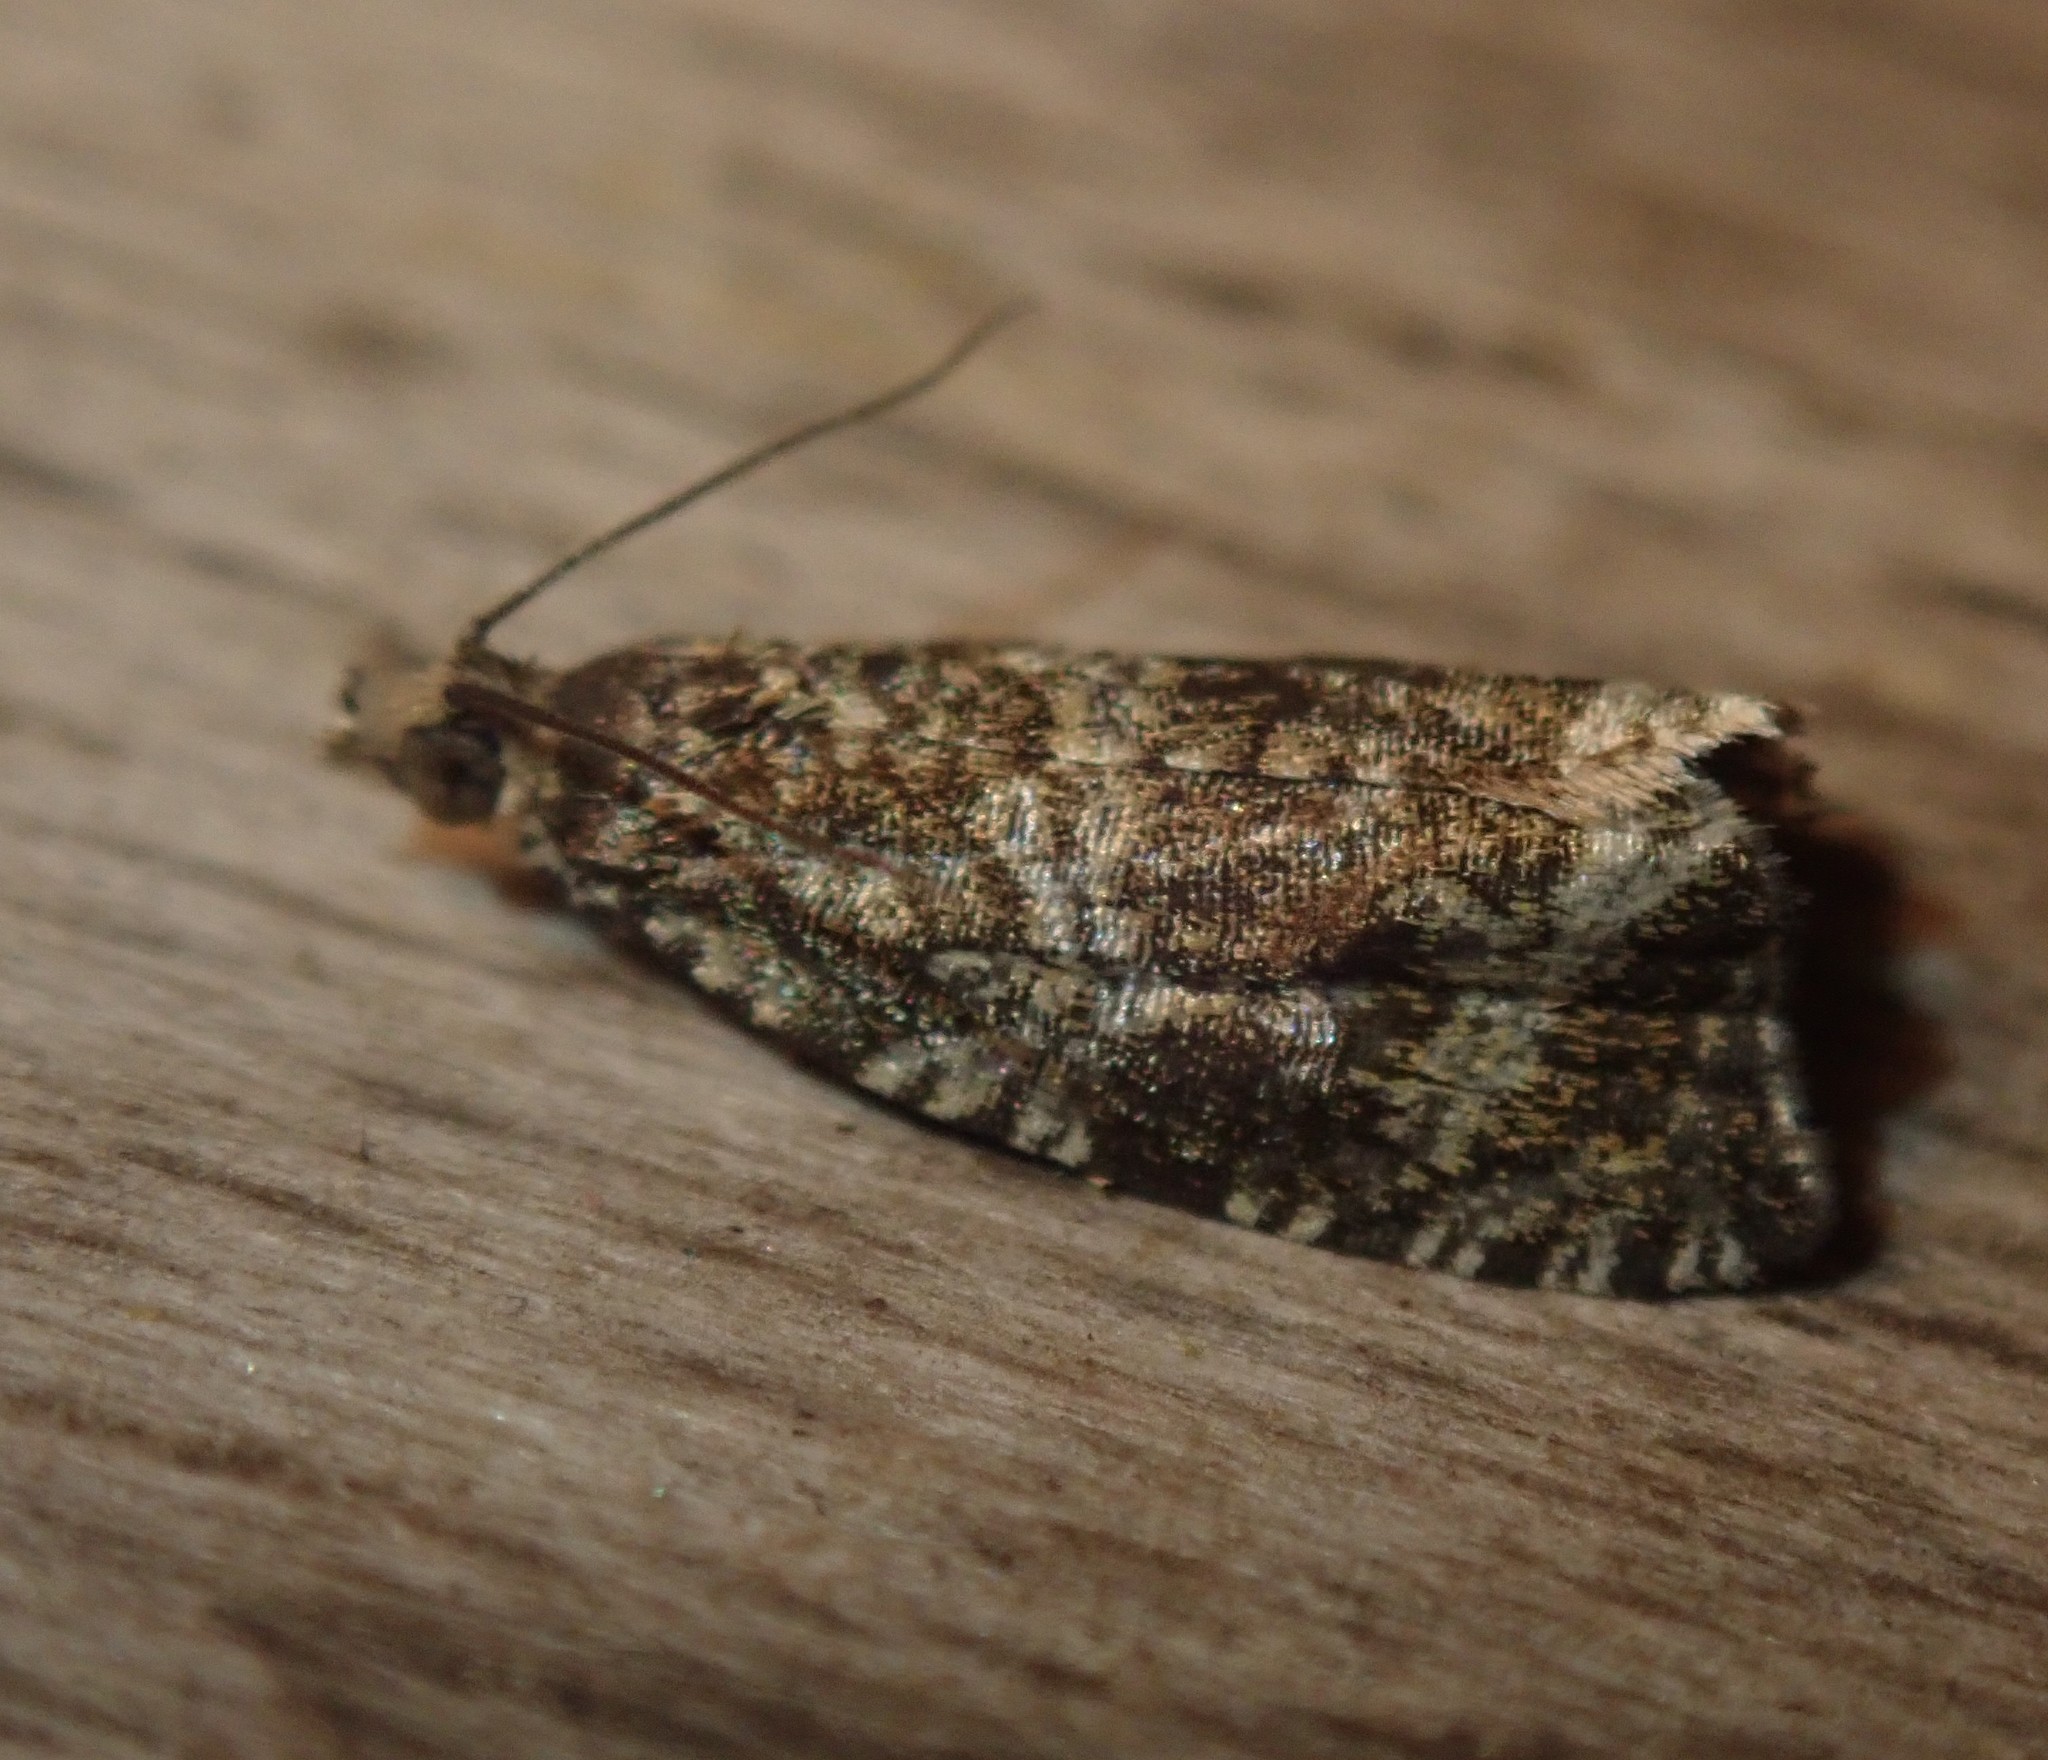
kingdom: Animalia
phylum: Arthropoda
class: Insecta
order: Lepidoptera
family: Tortricidae
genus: Syricoris
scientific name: Syricoris lacunana
